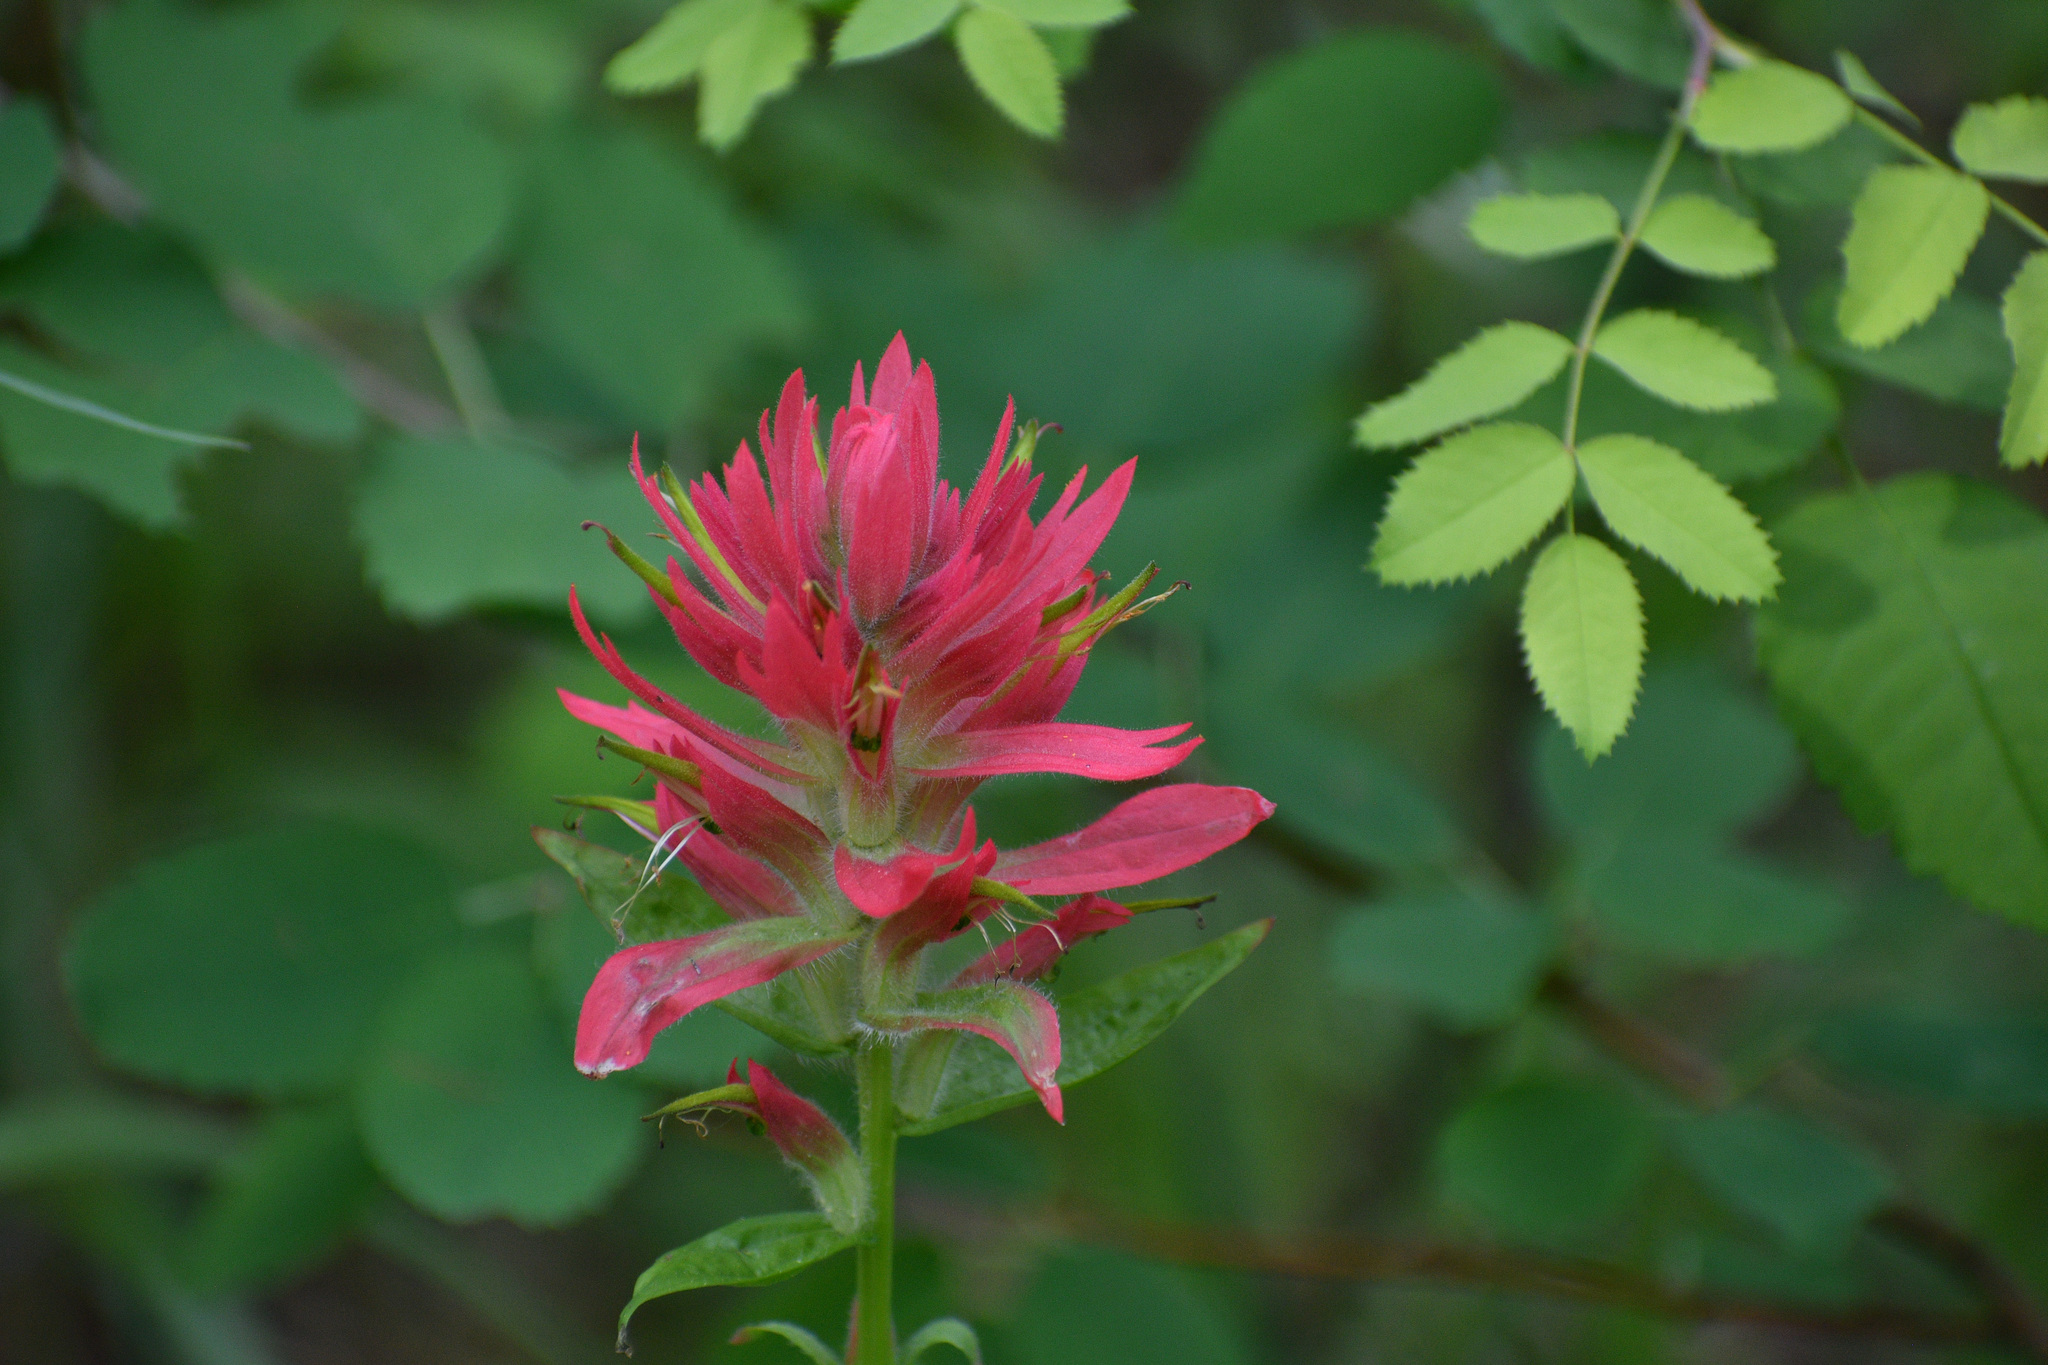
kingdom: Plantae
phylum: Tracheophyta
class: Magnoliopsida
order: Lamiales
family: Orobanchaceae
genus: Castilleja
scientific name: Castilleja miniata
